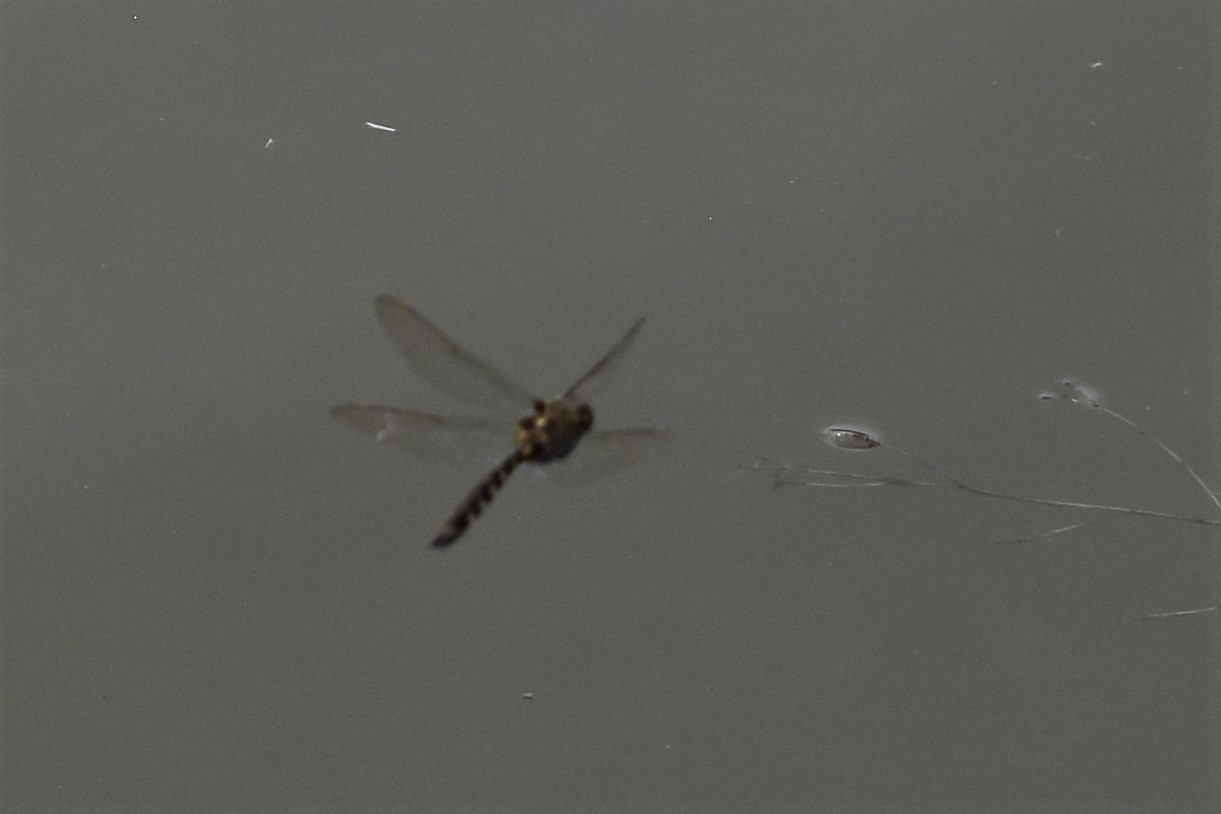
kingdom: Animalia
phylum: Arthropoda
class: Insecta
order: Odonata
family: Corduliidae
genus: Procordulia
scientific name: Procordulia grayi
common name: Yellow spotted dragonfly
